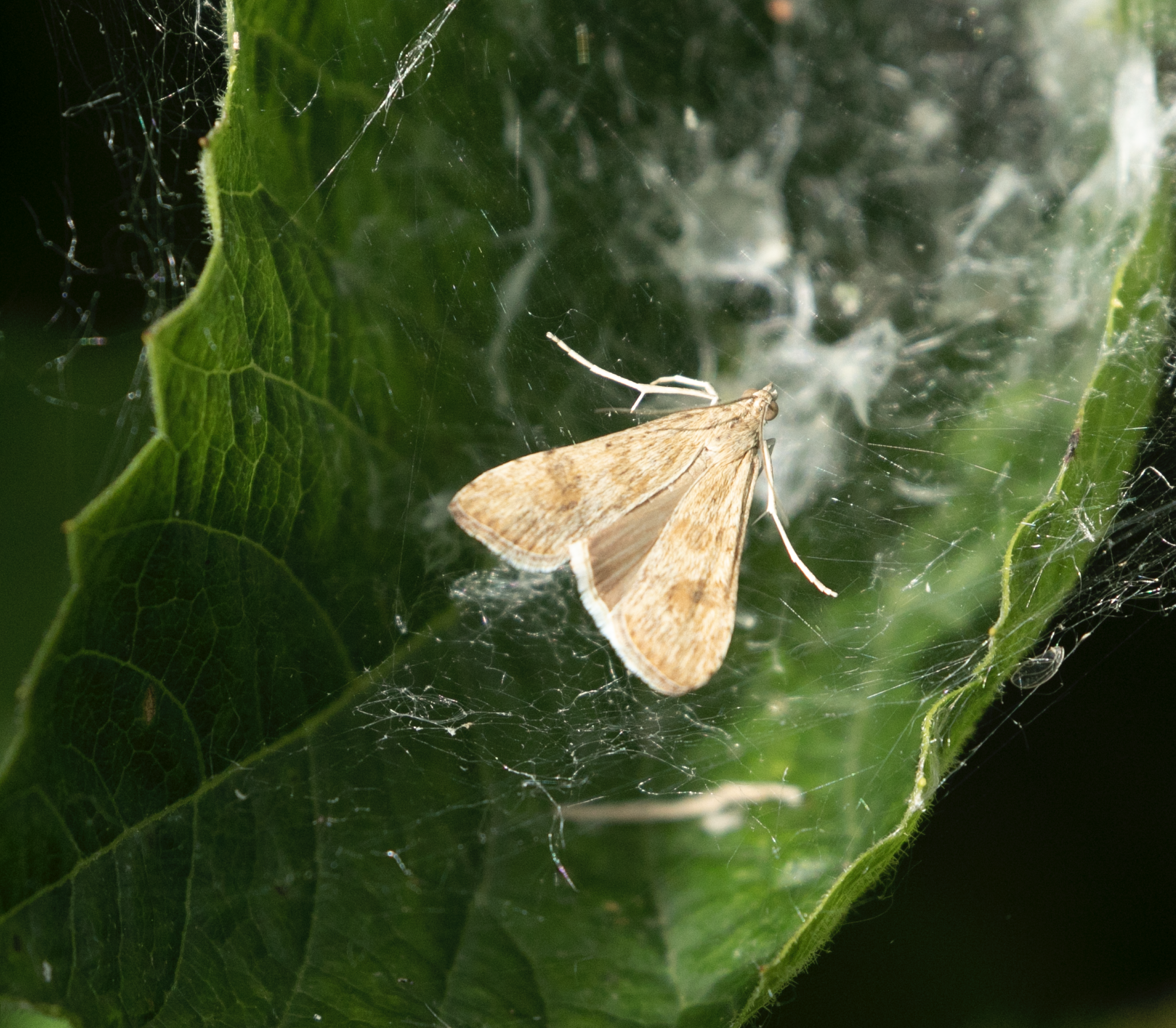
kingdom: Animalia
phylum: Arthropoda
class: Insecta
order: Lepidoptera
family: Crambidae
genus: Nomophila
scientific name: Nomophila noctuella
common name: Rush veneer
